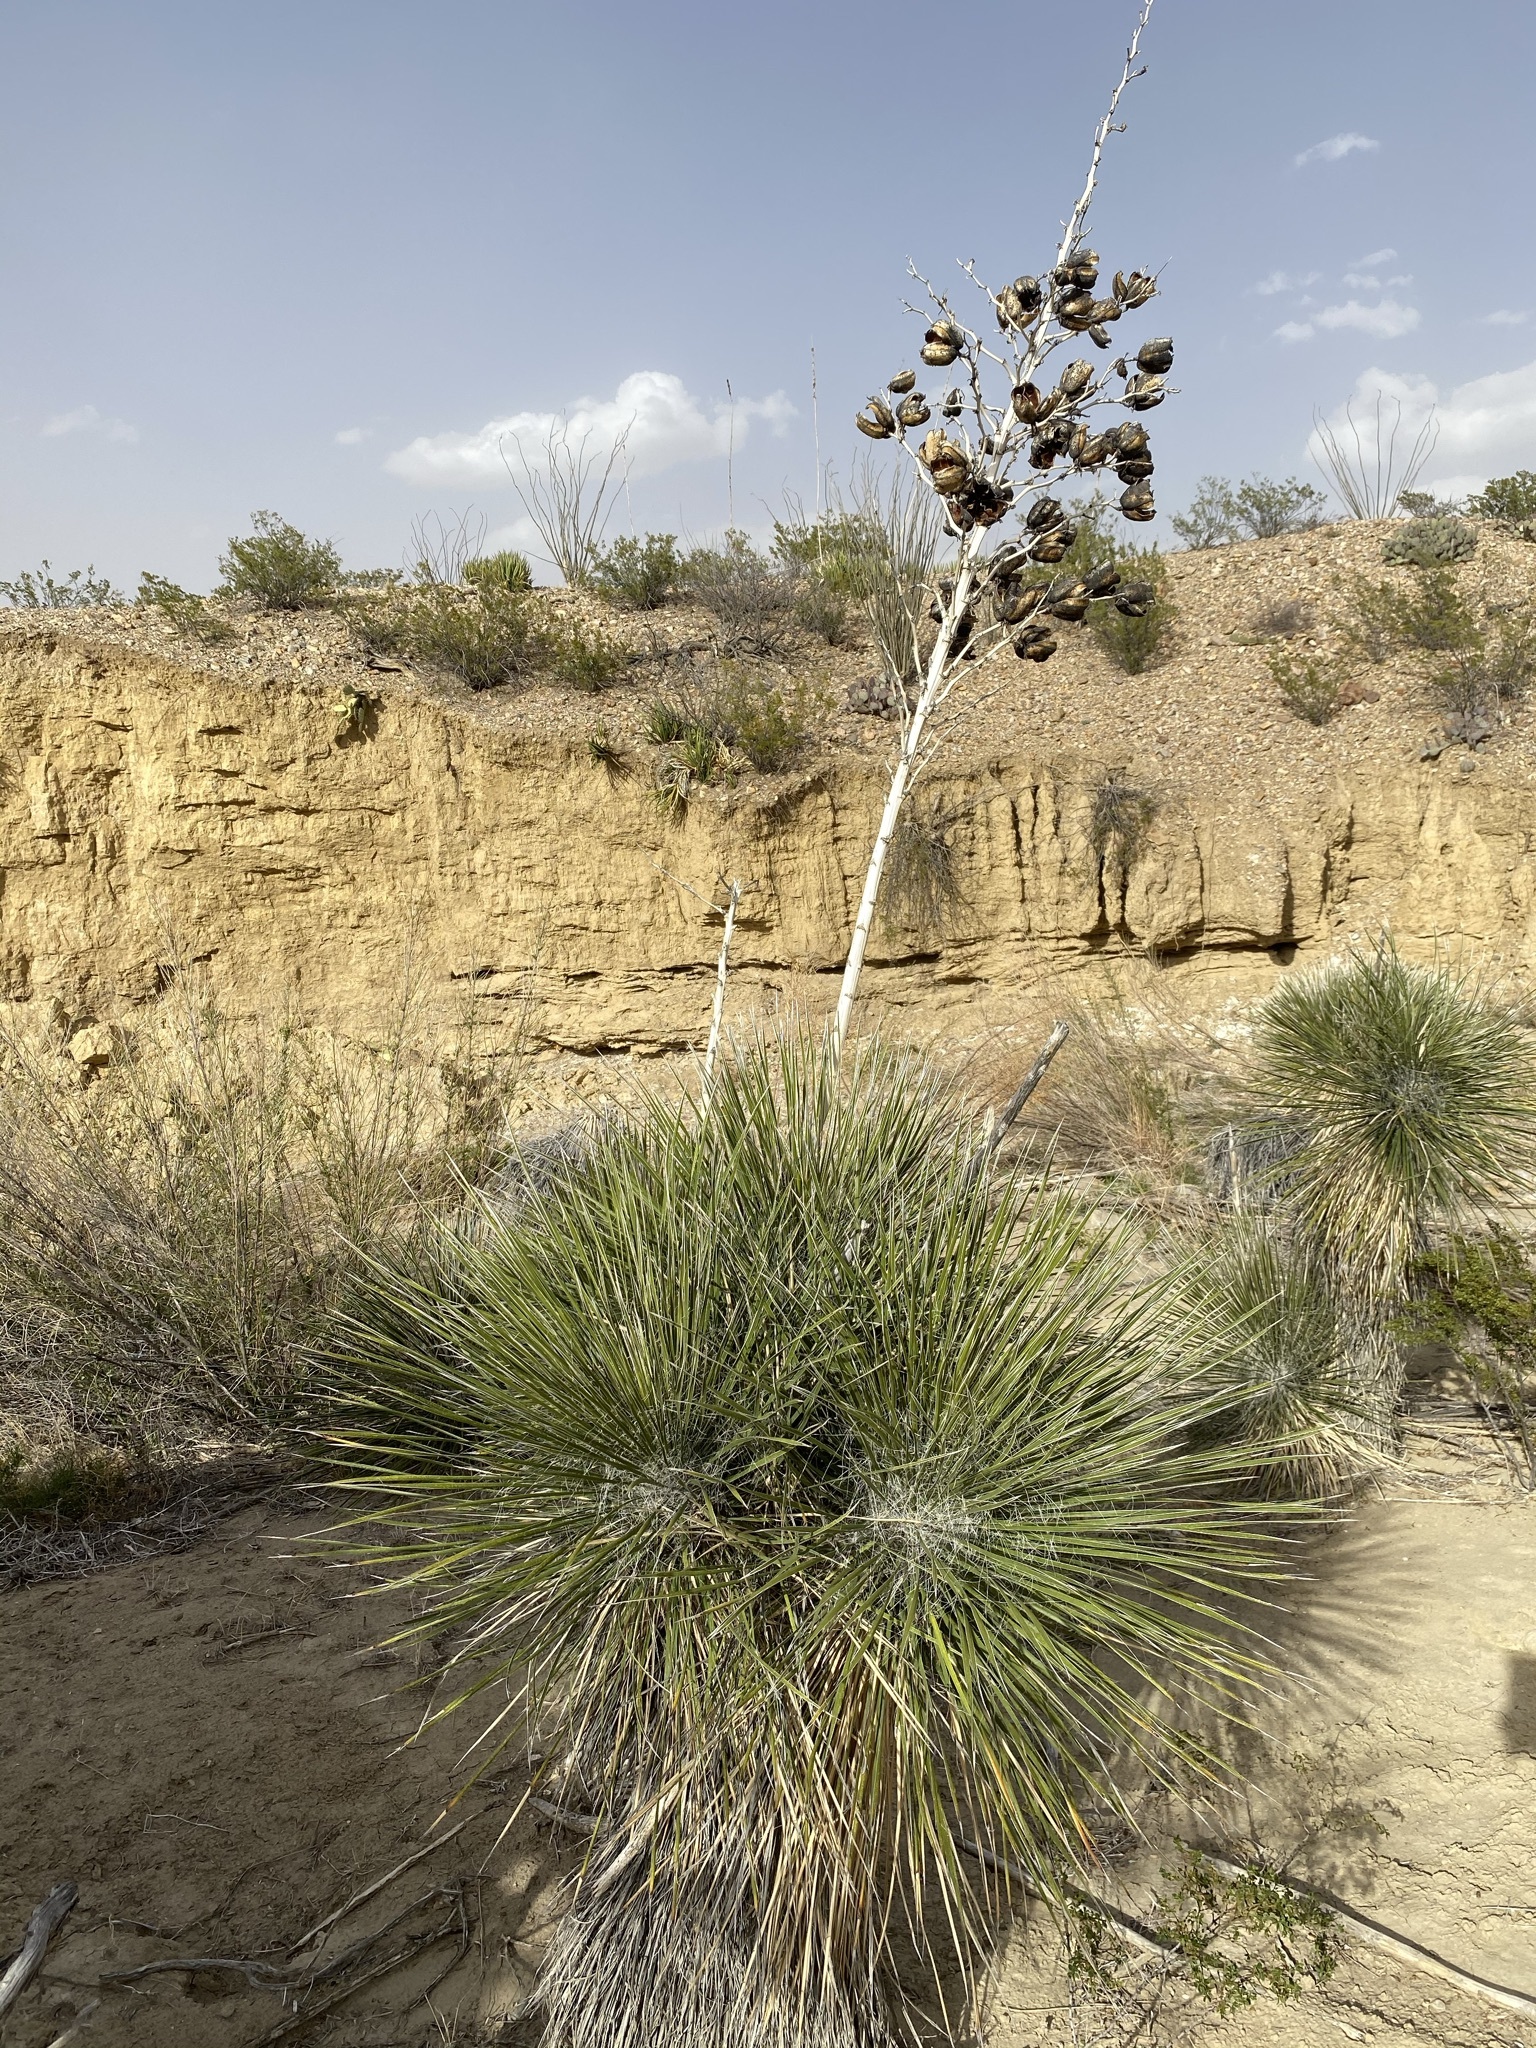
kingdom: Plantae
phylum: Tracheophyta
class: Liliopsida
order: Asparagales
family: Asparagaceae
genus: Yucca
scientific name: Yucca elata
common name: Palmella
